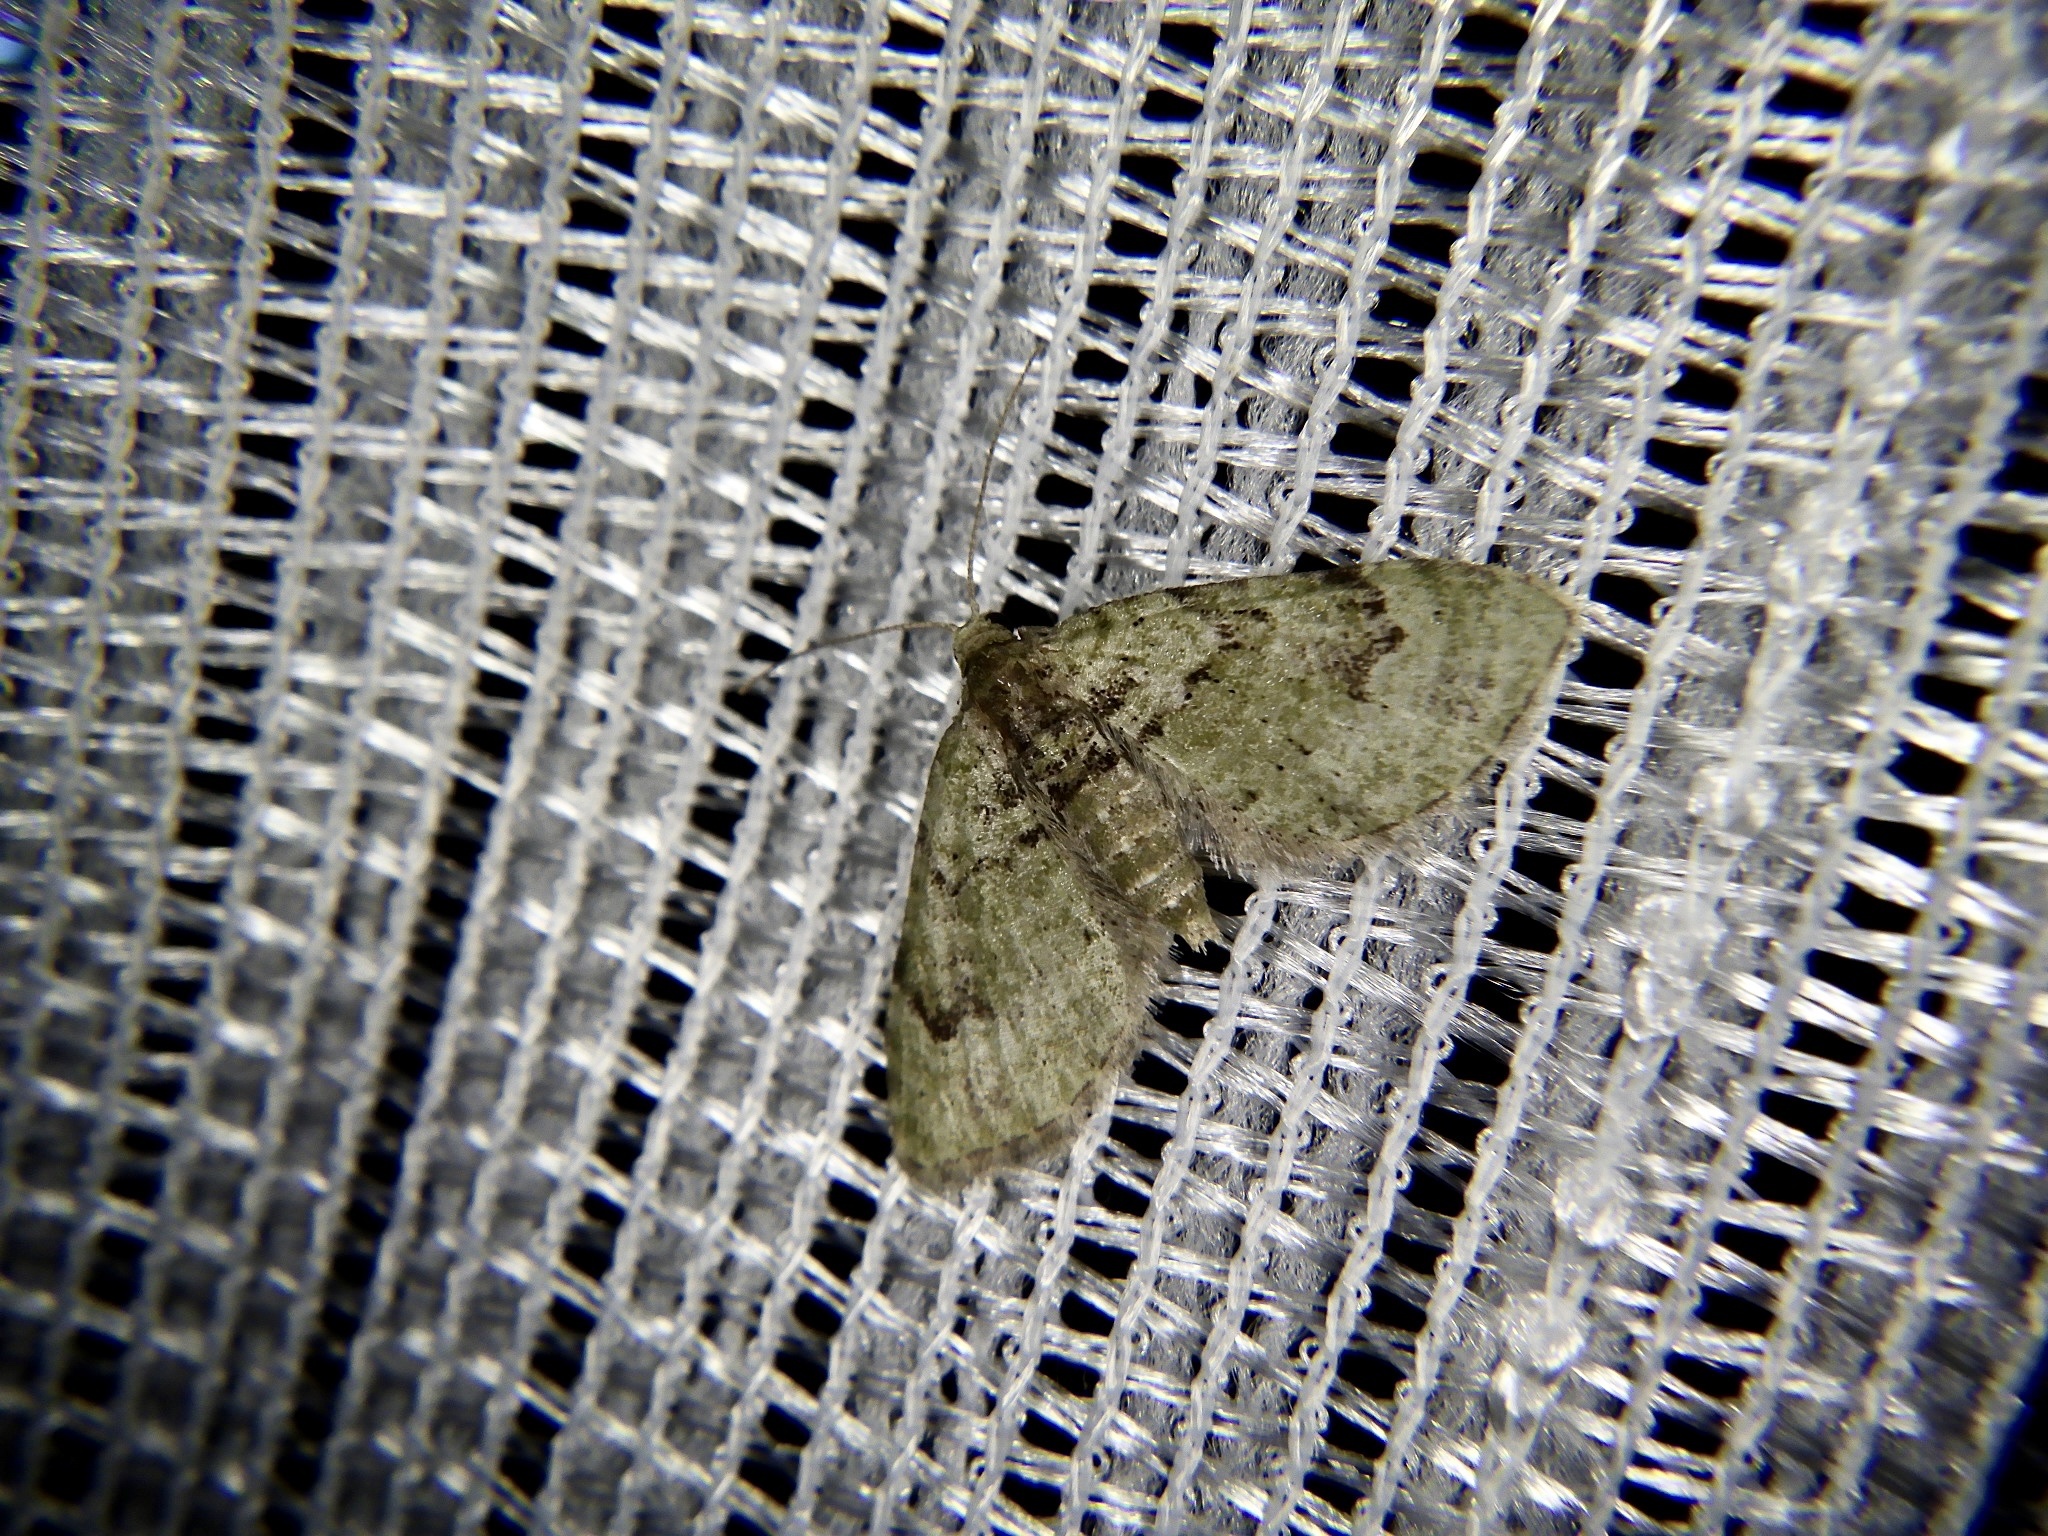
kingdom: Animalia
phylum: Arthropoda
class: Insecta
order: Lepidoptera
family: Geometridae
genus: Chloroclystis
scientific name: Chloroclystis v-ata
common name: V-pug
